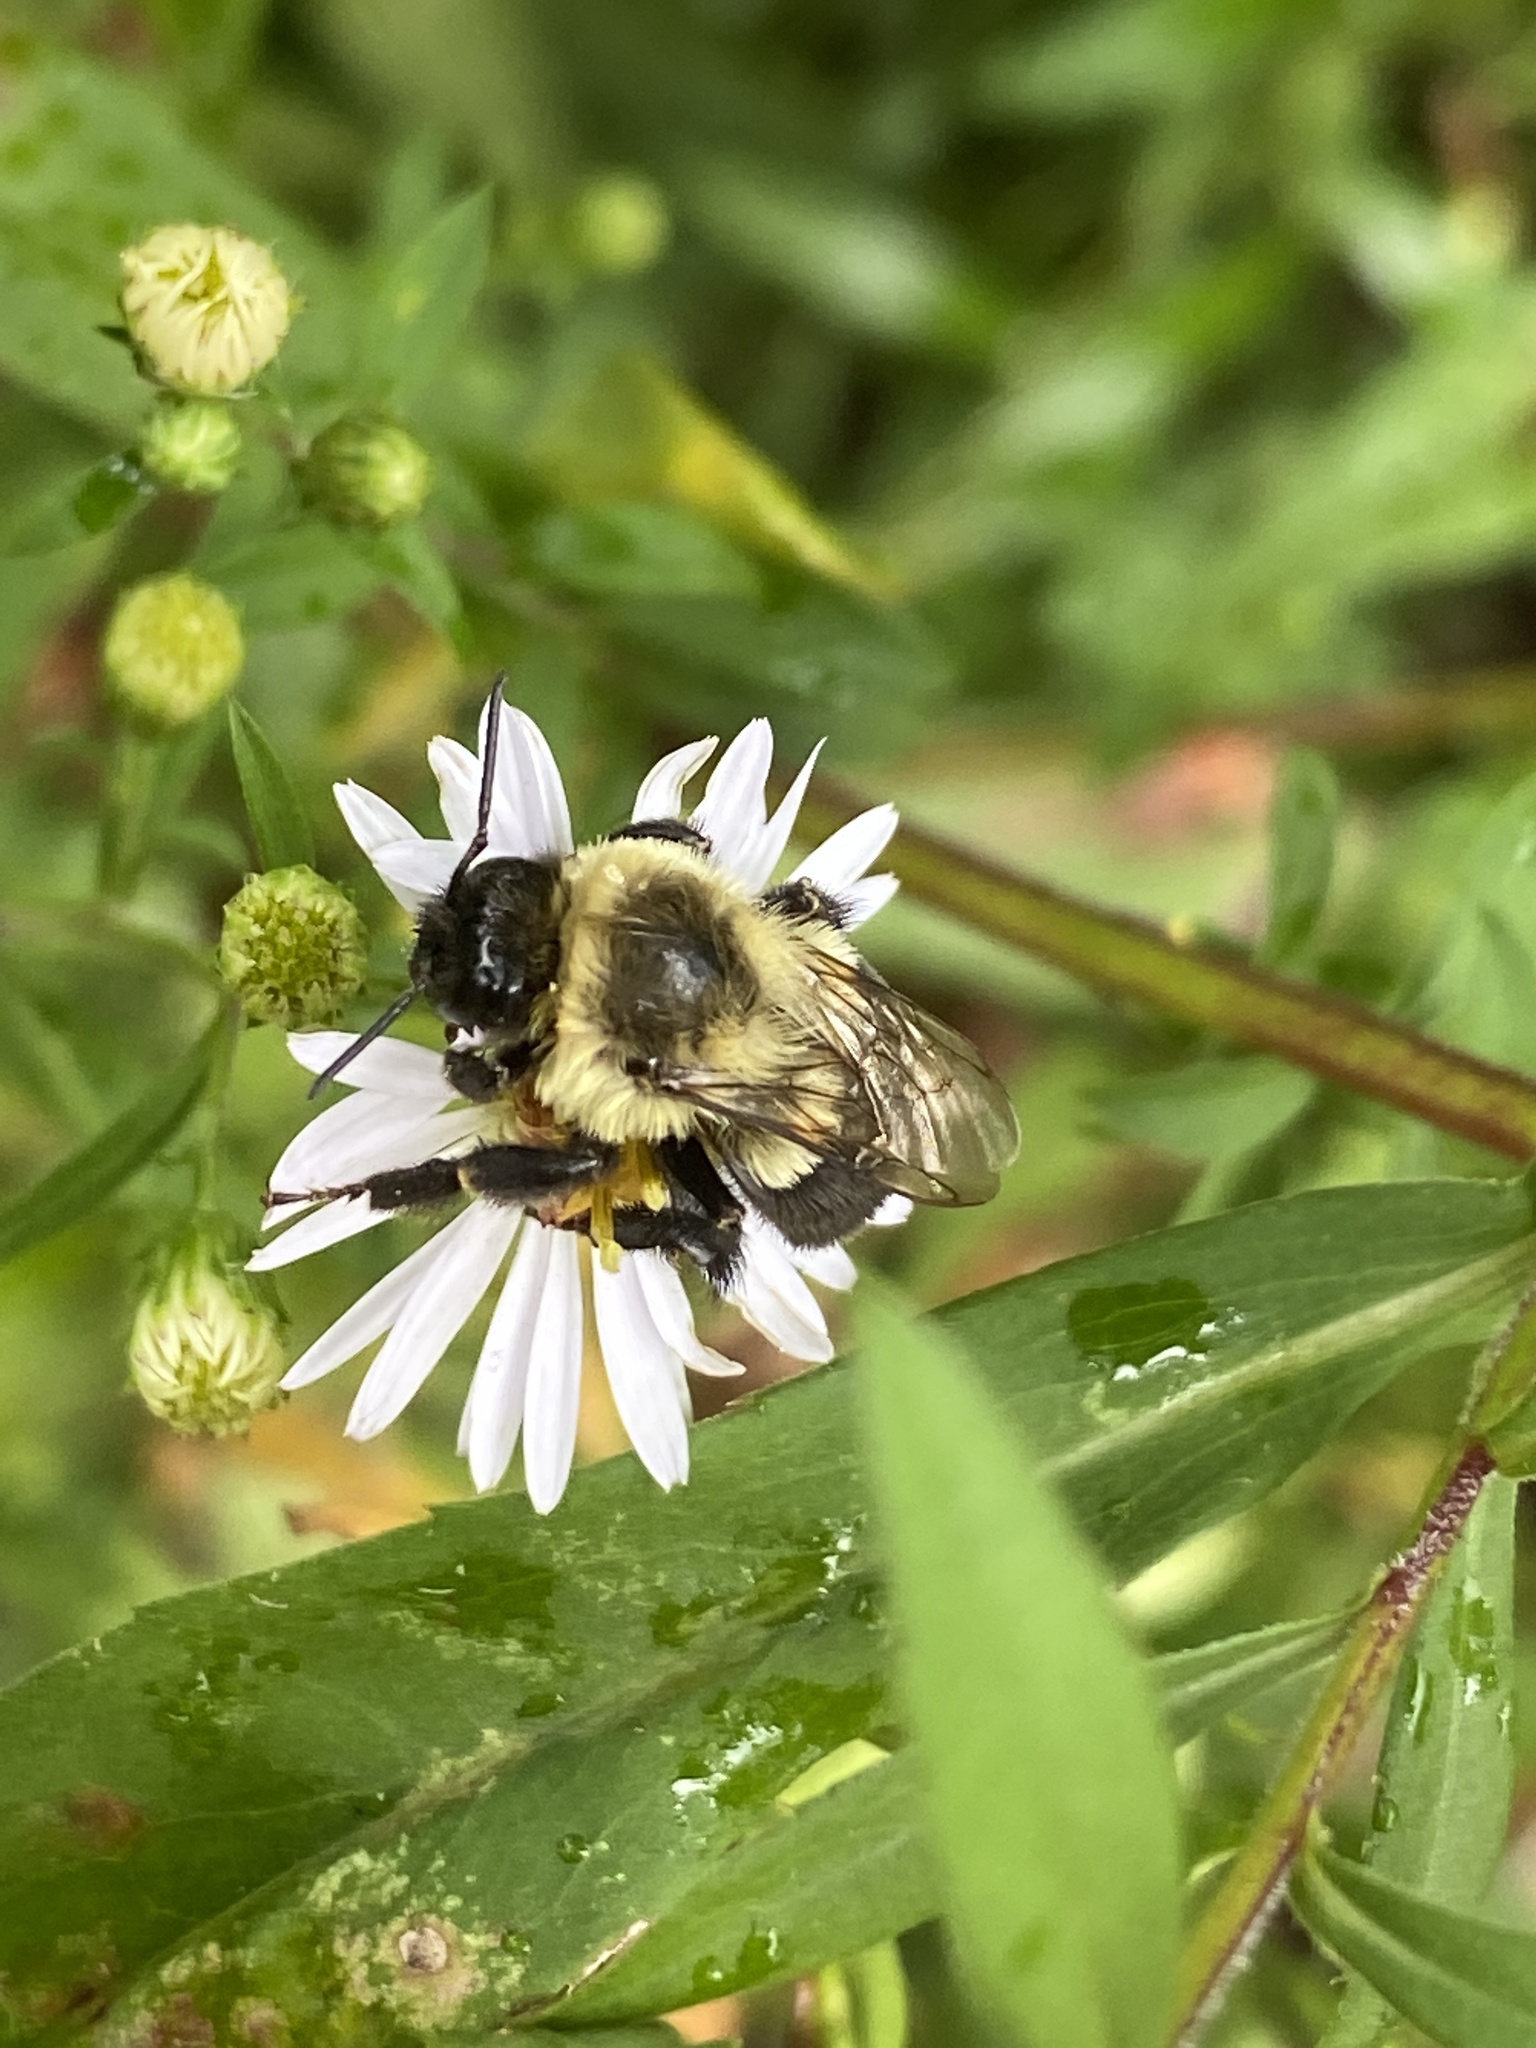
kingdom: Animalia
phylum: Arthropoda
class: Insecta
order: Hymenoptera
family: Apidae
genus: Bombus
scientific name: Bombus impatiens
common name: Common eastern bumble bee
